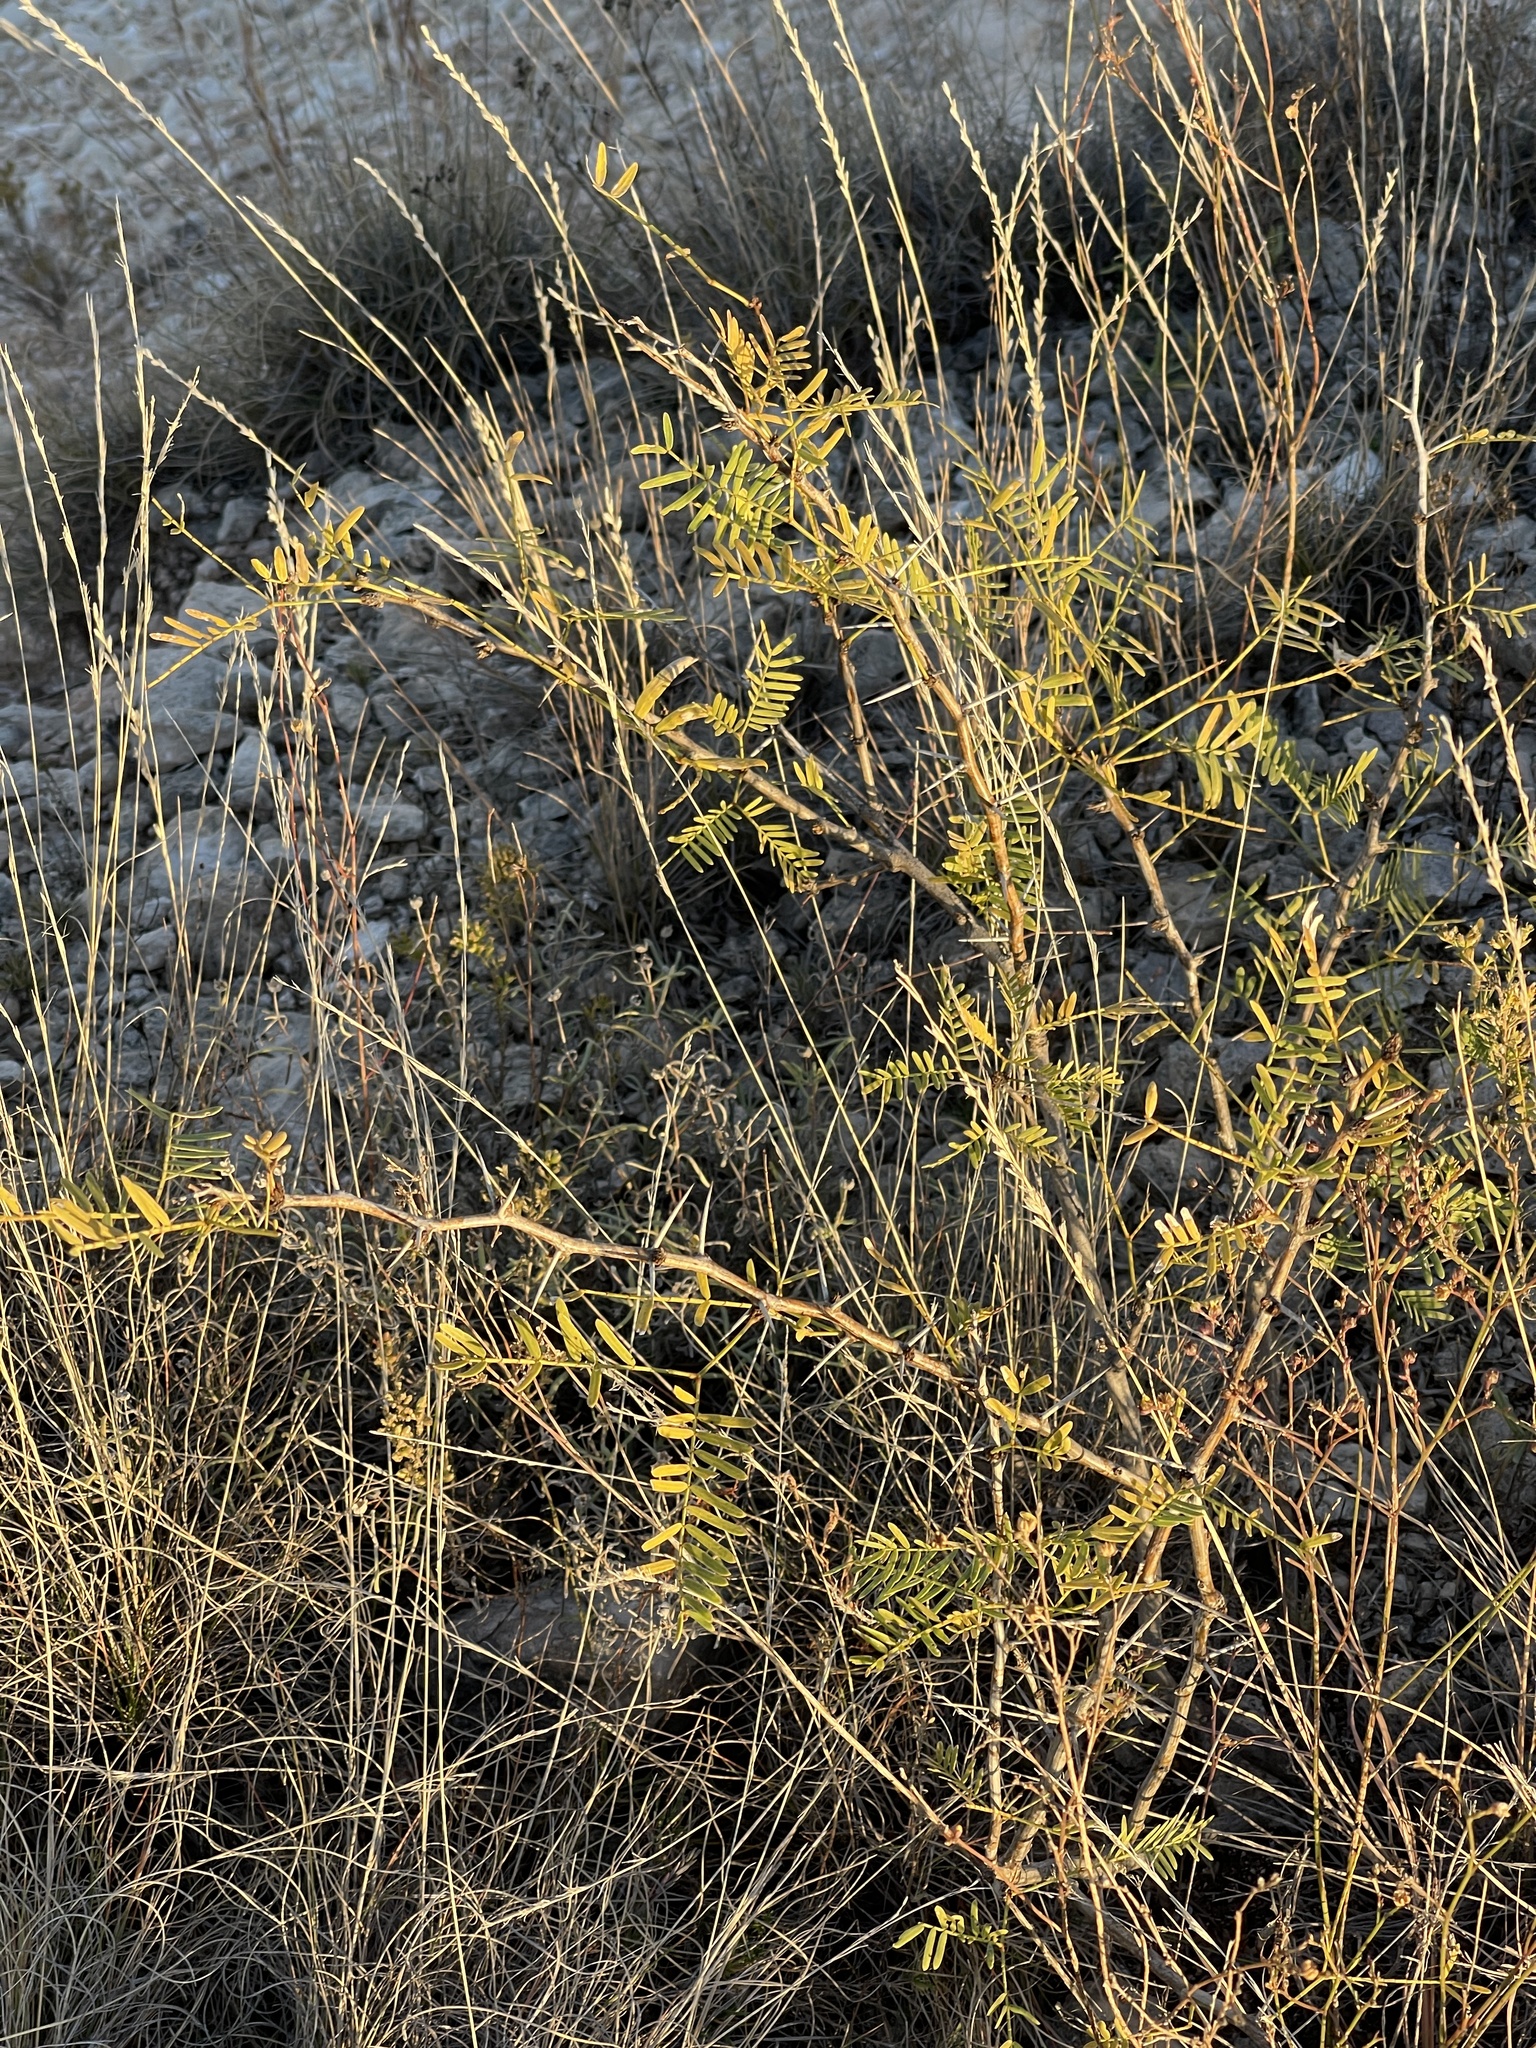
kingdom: Plantae
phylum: Tracheophyta
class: Magnoliopsida
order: Fabales
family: Fabaceae
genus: Prosopis
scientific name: Prosopis glandulosa
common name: Honey mesquite
